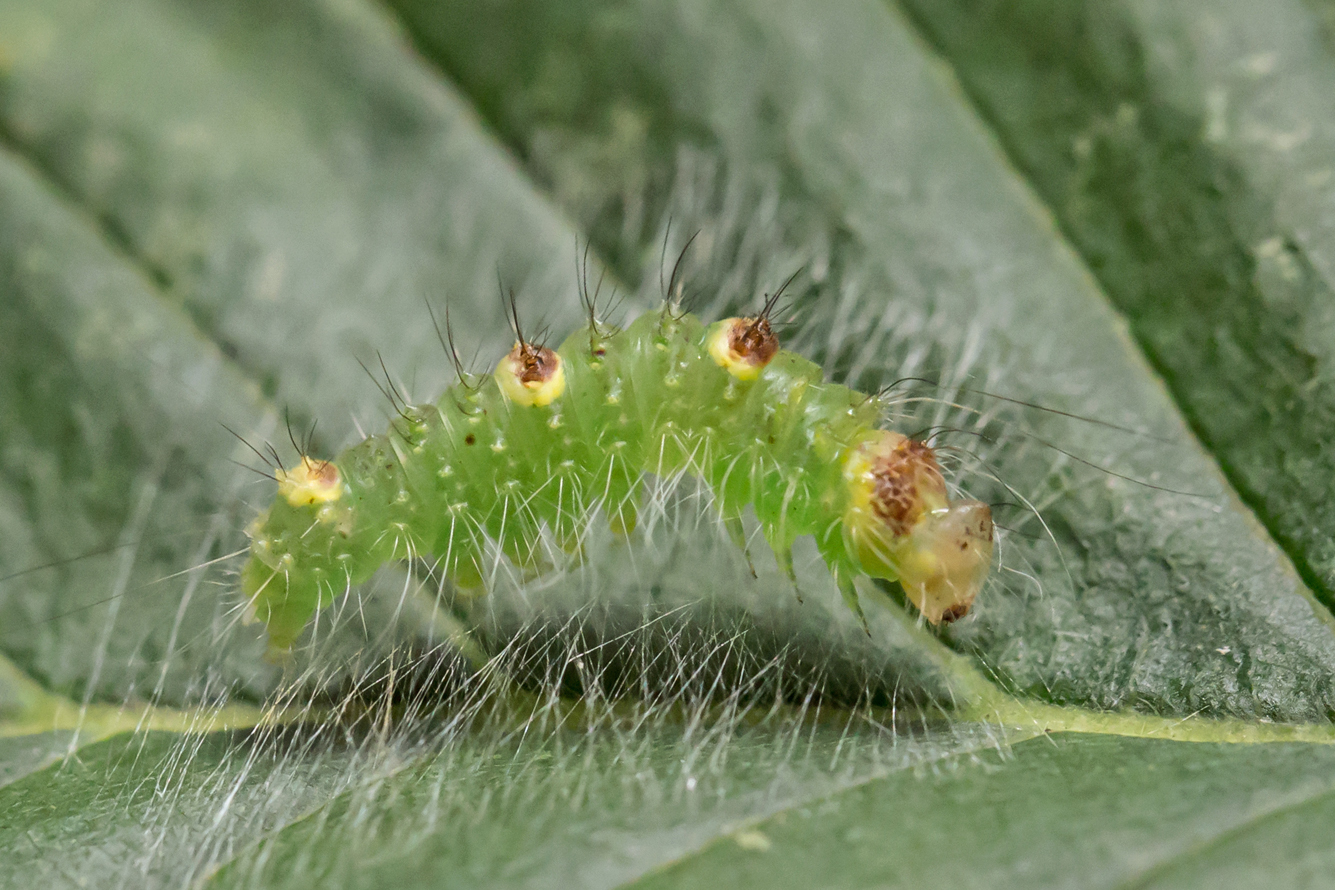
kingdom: Animalia
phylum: Arthropoda
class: Insecta
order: Lepidoptera
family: Noctuidae
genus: Acronicta
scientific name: Acronicta morula
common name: Ochre dagger
